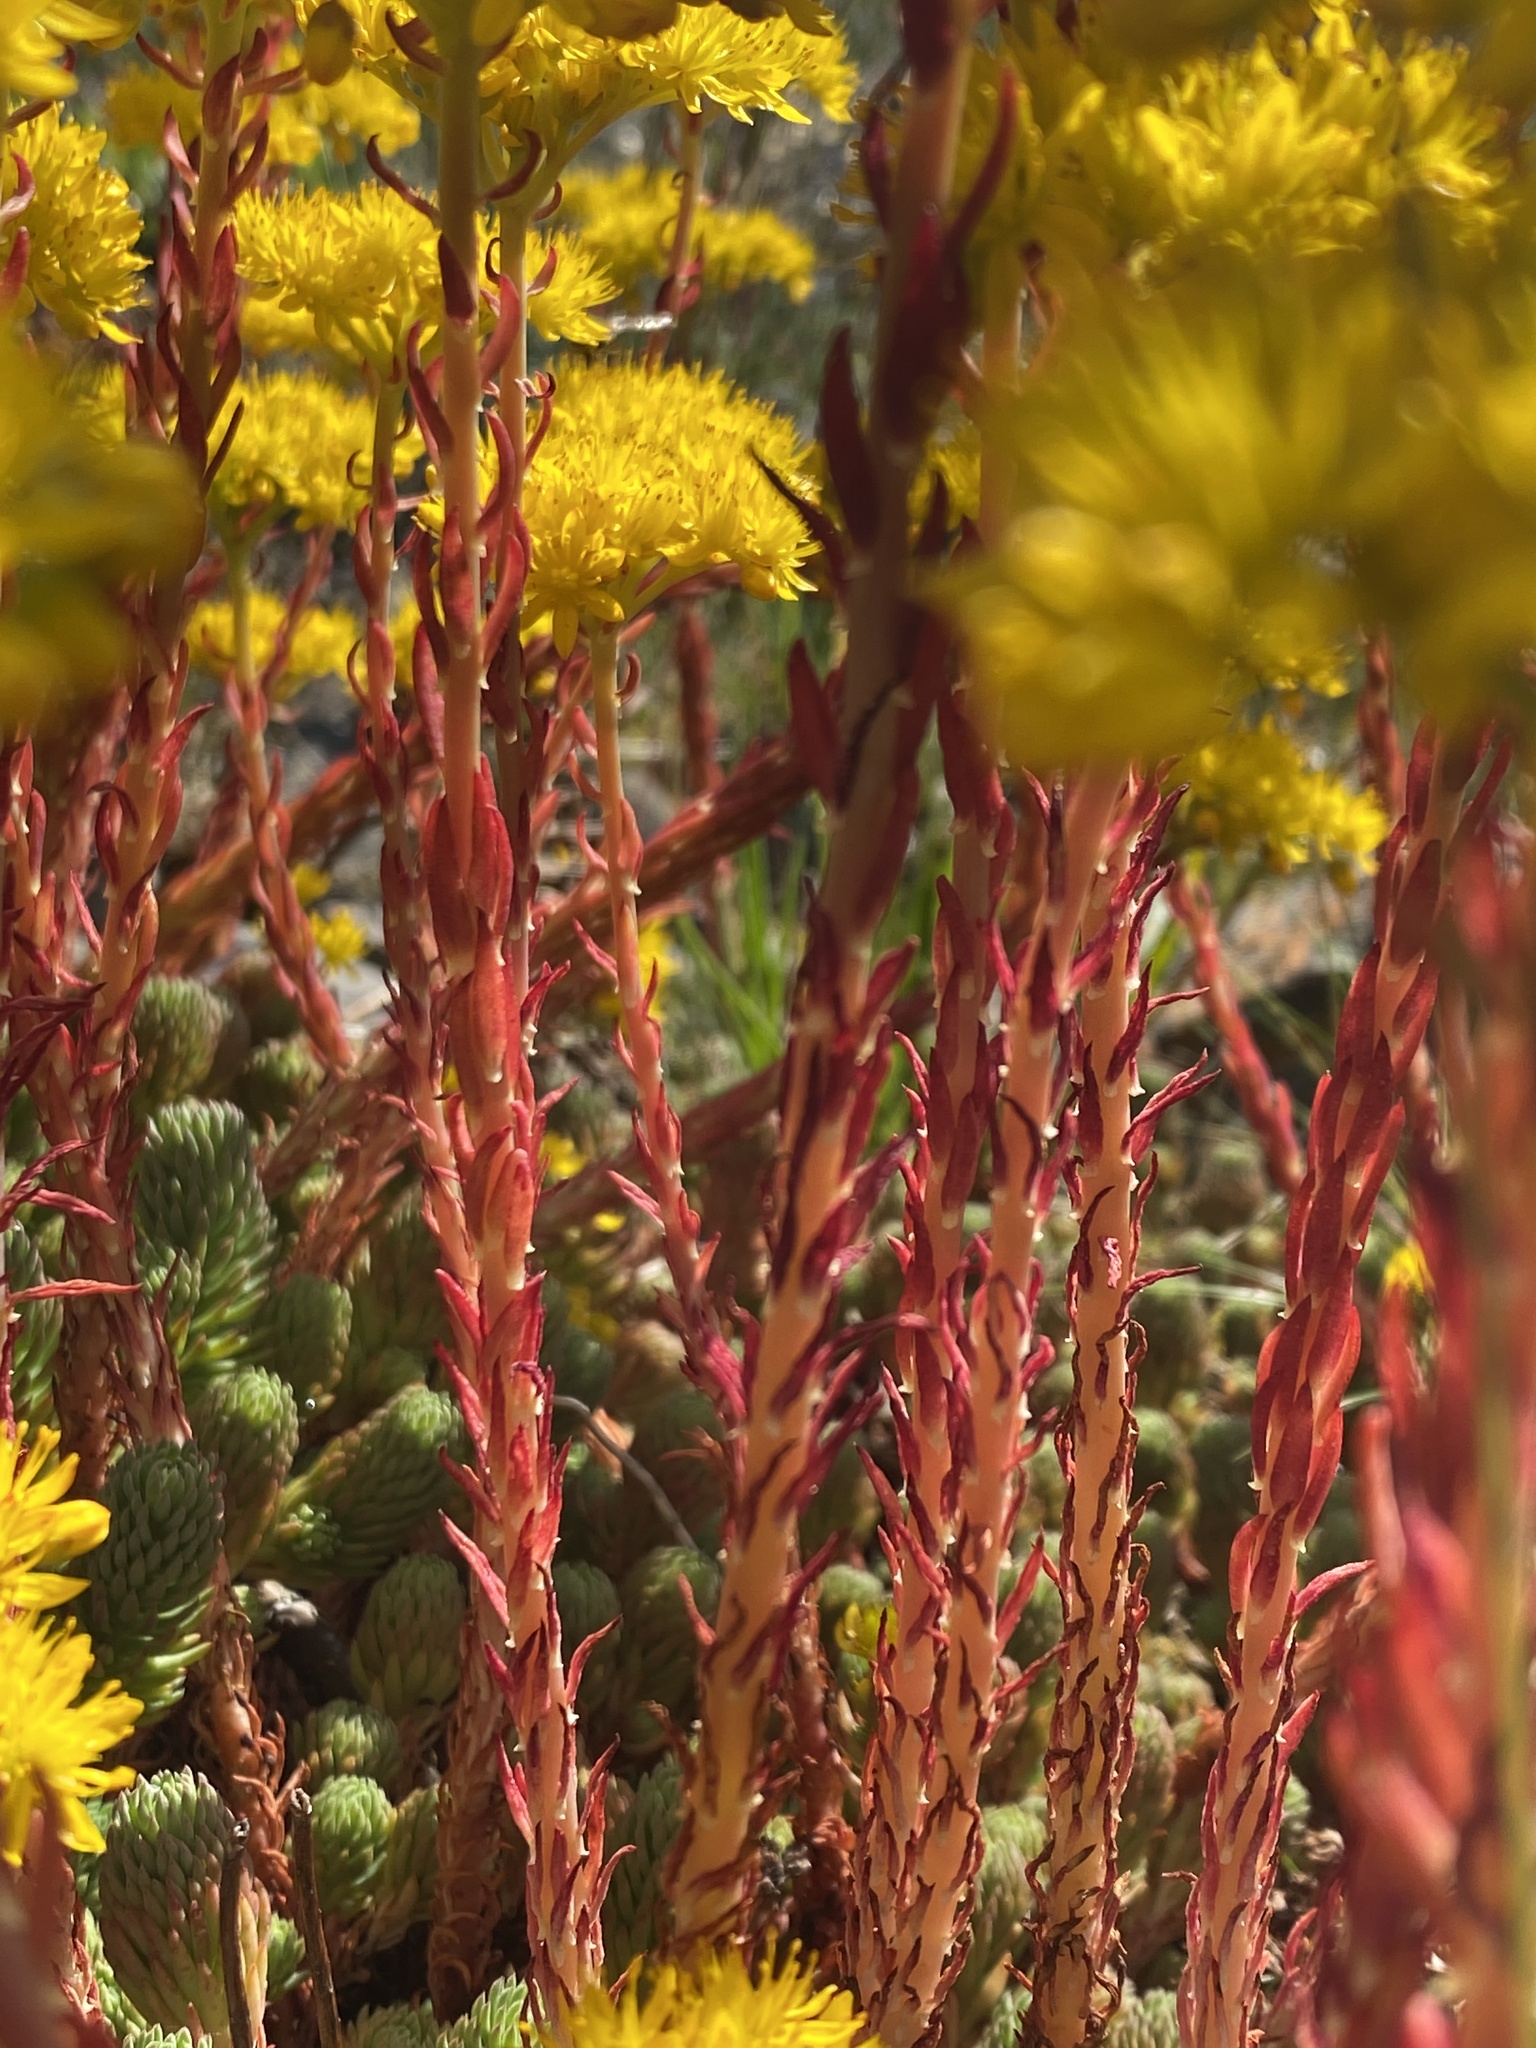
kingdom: Plantae
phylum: Tracheophyta
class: Magnoliopsida
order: Saxifragales
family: Crassulaceae
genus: Petrosedum
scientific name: Petrosedum forsterianum
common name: Forster's stonecrop
